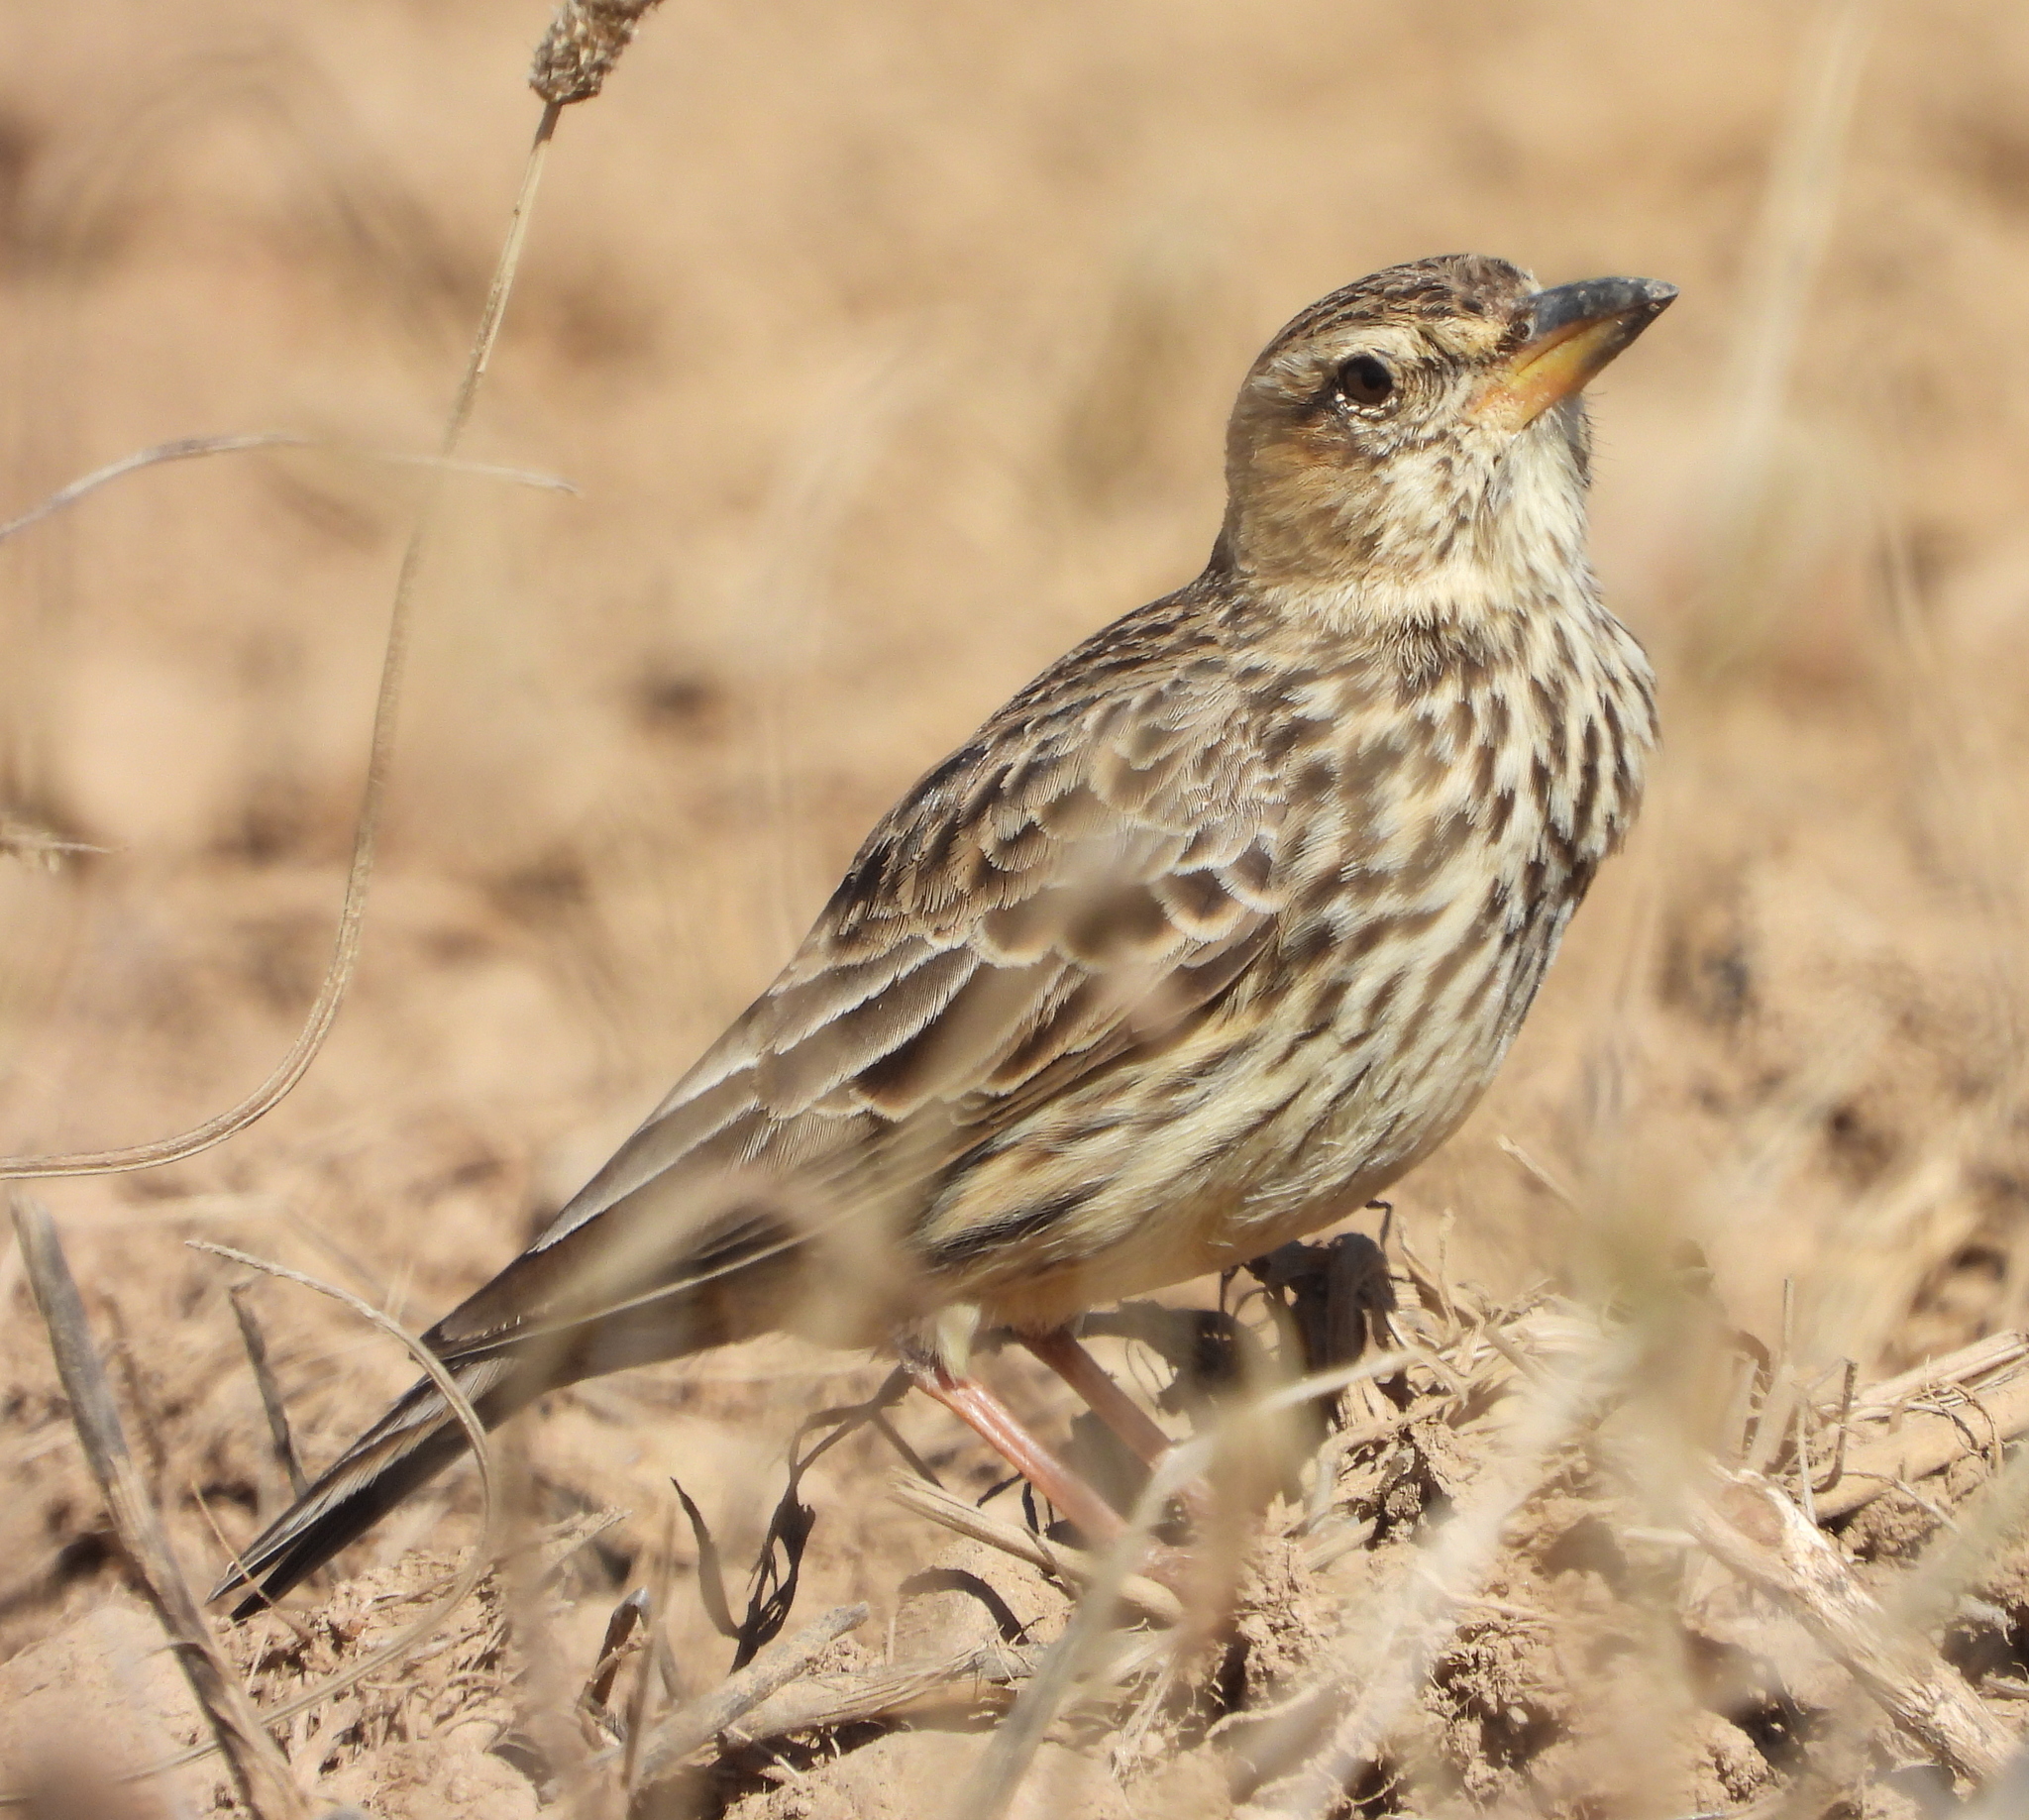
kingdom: Animalia
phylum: Chordata
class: Aves
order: Passeriformes
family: Alaudidae
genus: Galerida
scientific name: Galerida magnirostris
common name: Large-billed lark
